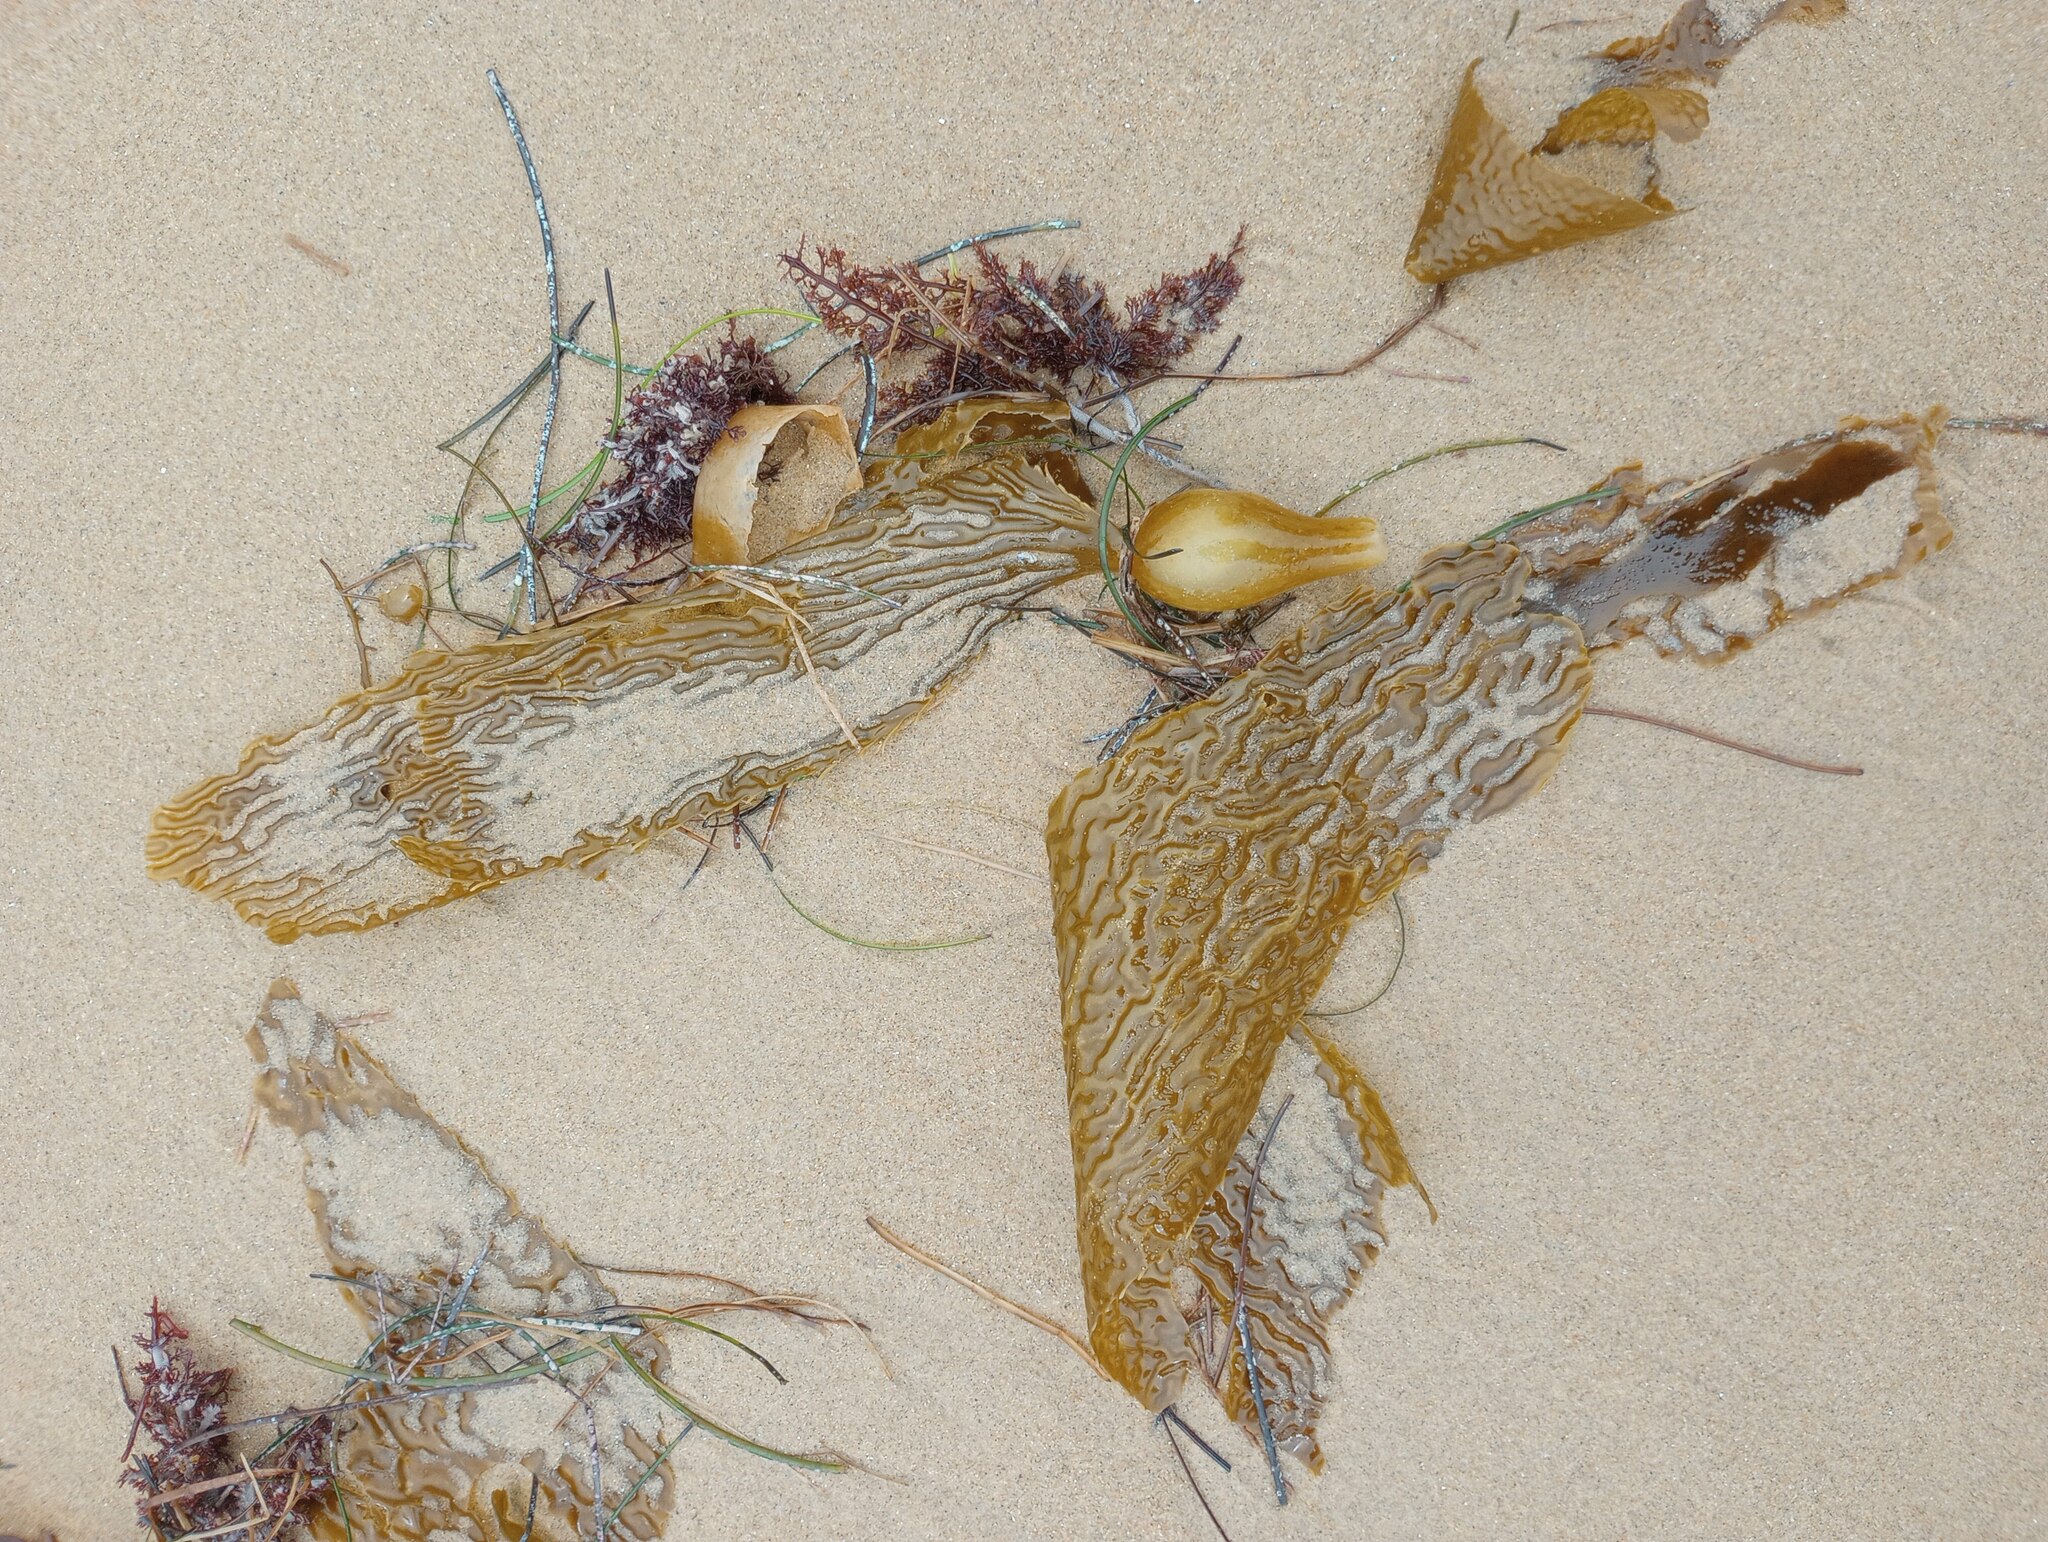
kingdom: Chromista
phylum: Ochrophyta
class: Phaeophyceae
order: Laminariales
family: Laminariaceae
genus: Macrocystis
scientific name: Macrocystis pyrifera
